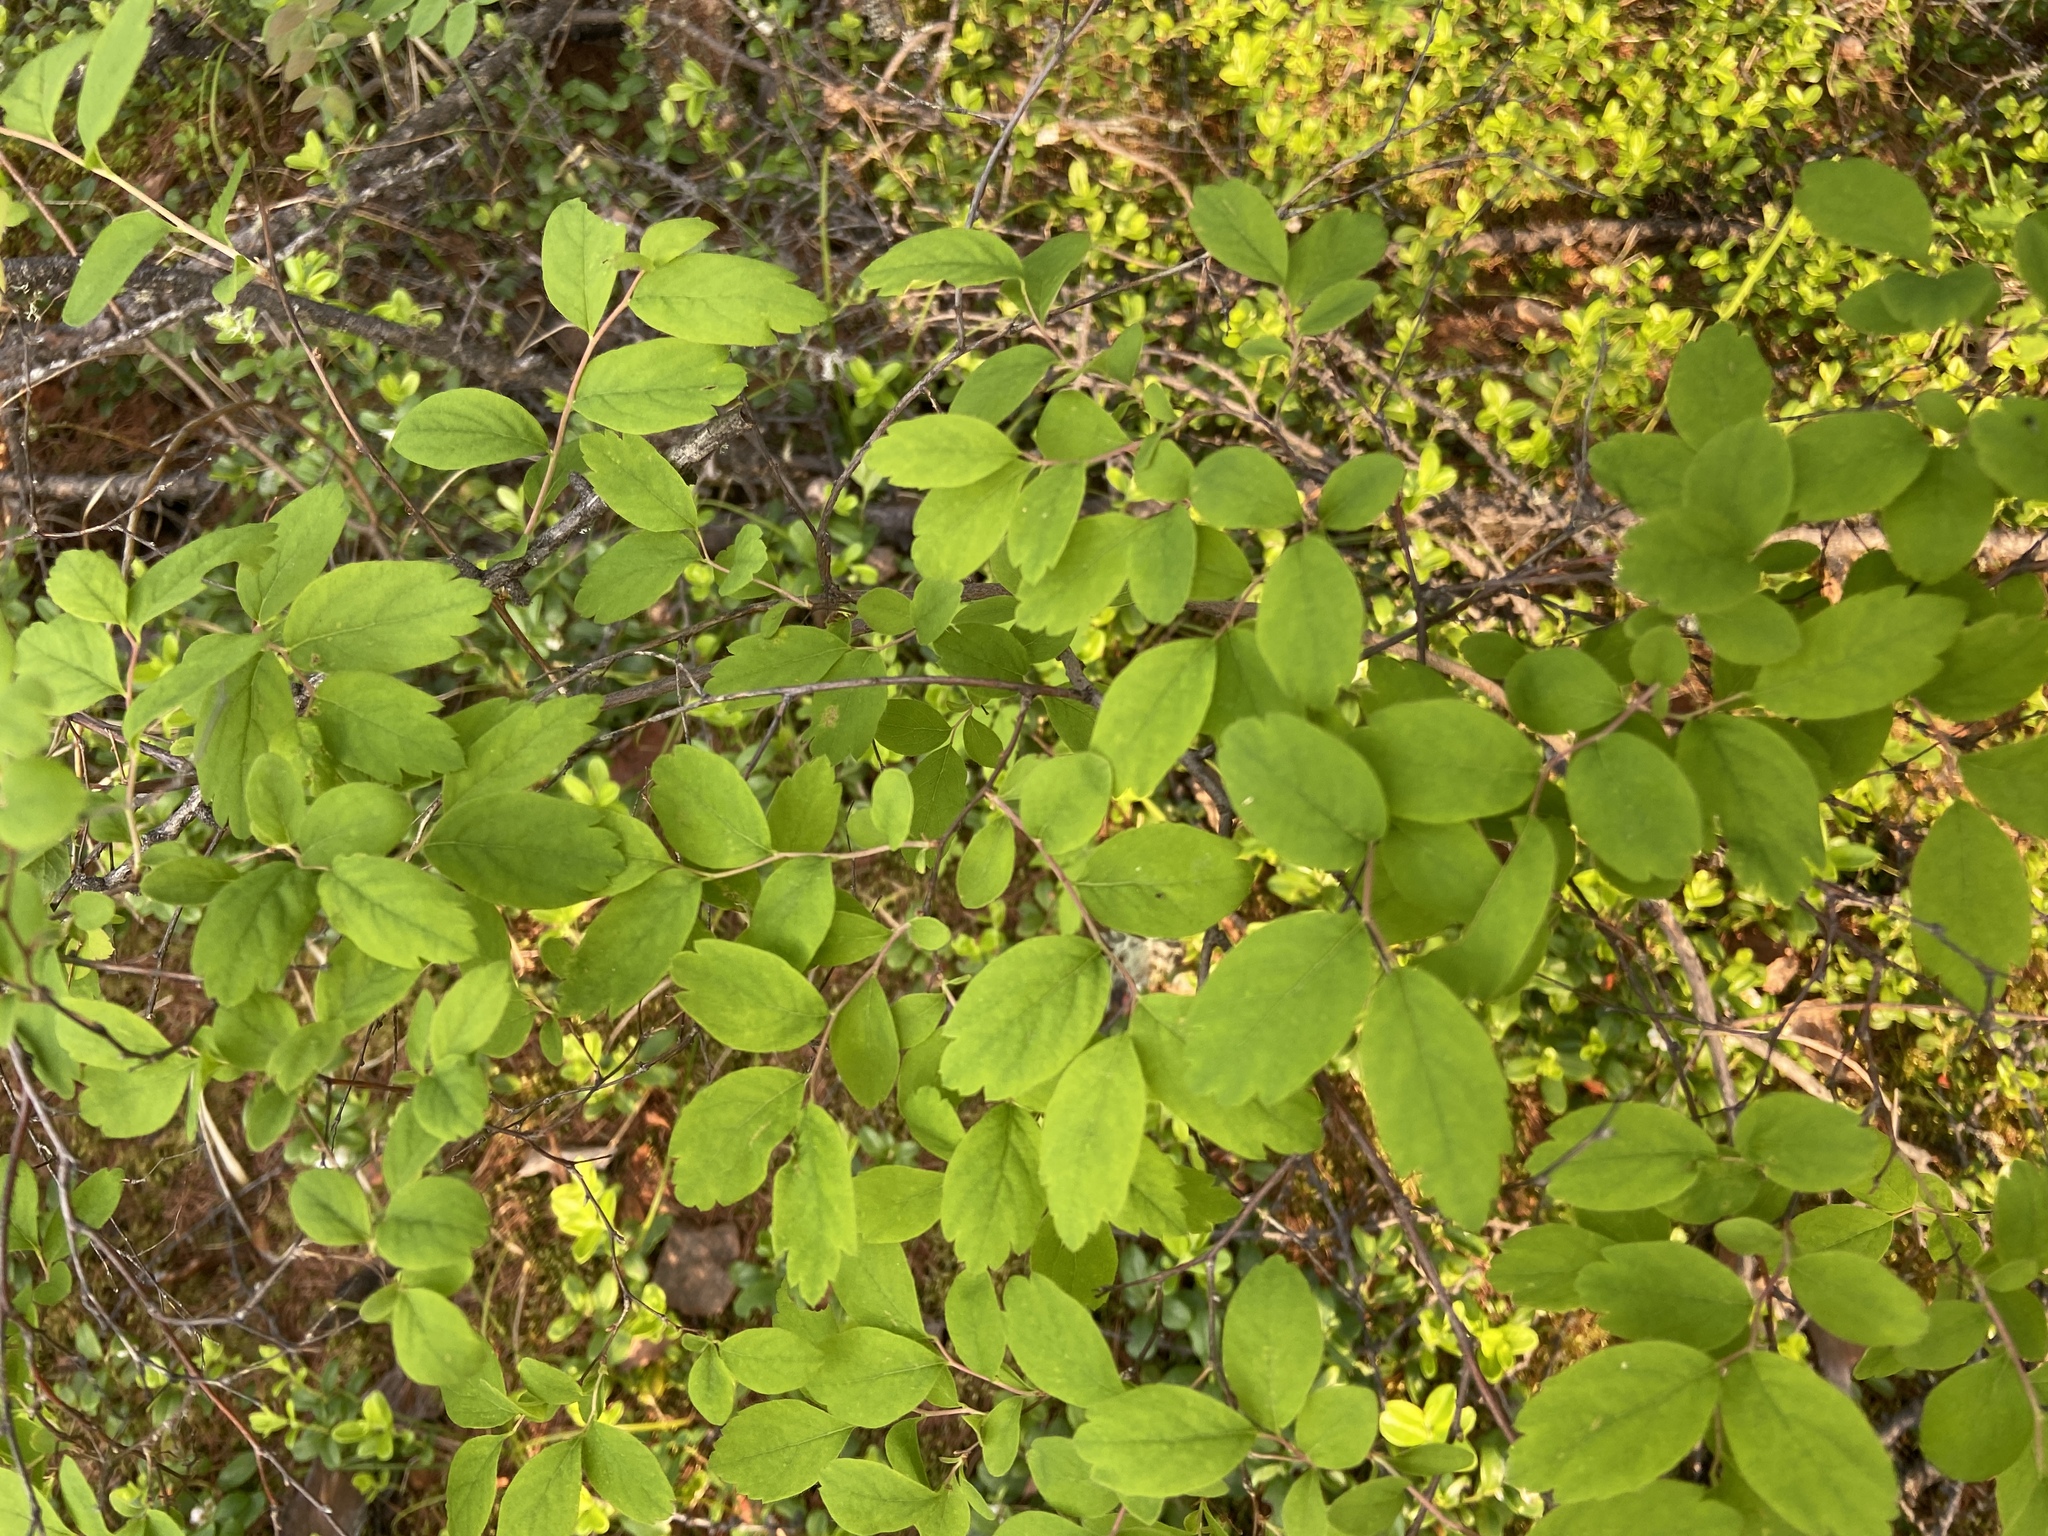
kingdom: Plantae
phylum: Tracheophyta
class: Magnoliopsida
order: Rosales
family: Rosaceae
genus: Spiraea
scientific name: Spiraea media
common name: Russian spiraea
